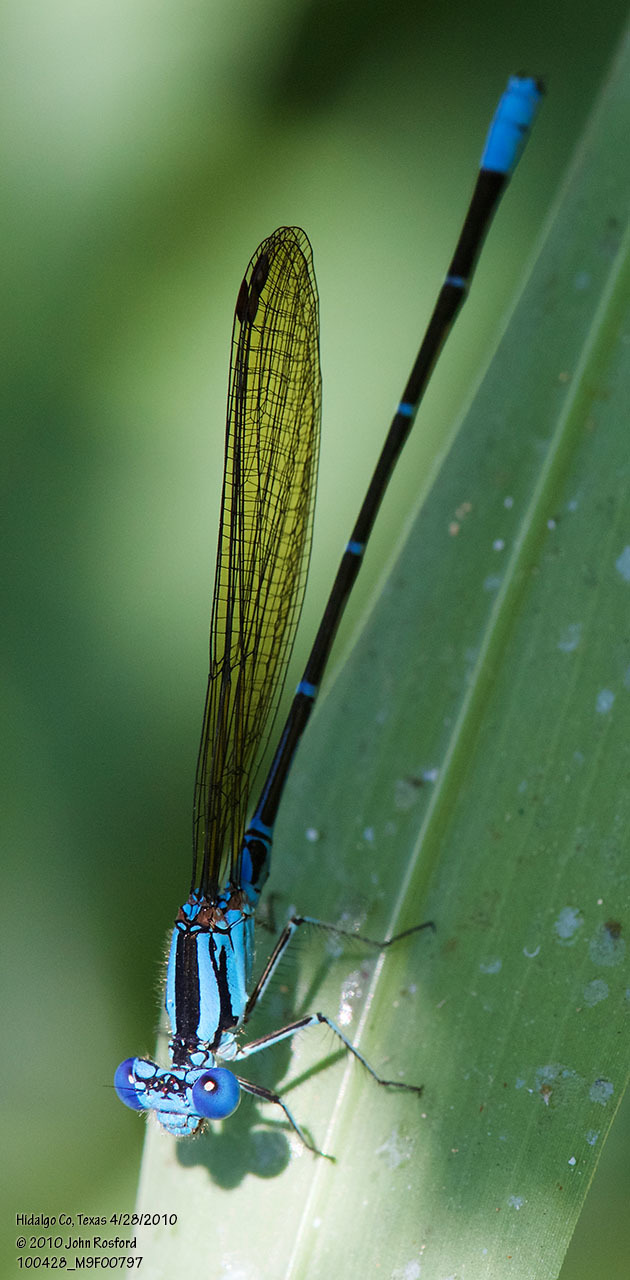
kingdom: Animalia
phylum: Arthropoda
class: Insecta
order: Odonata
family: Coenagrionidae
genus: Argia
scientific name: Argia rhoadsi
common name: Golden-winged dancer
